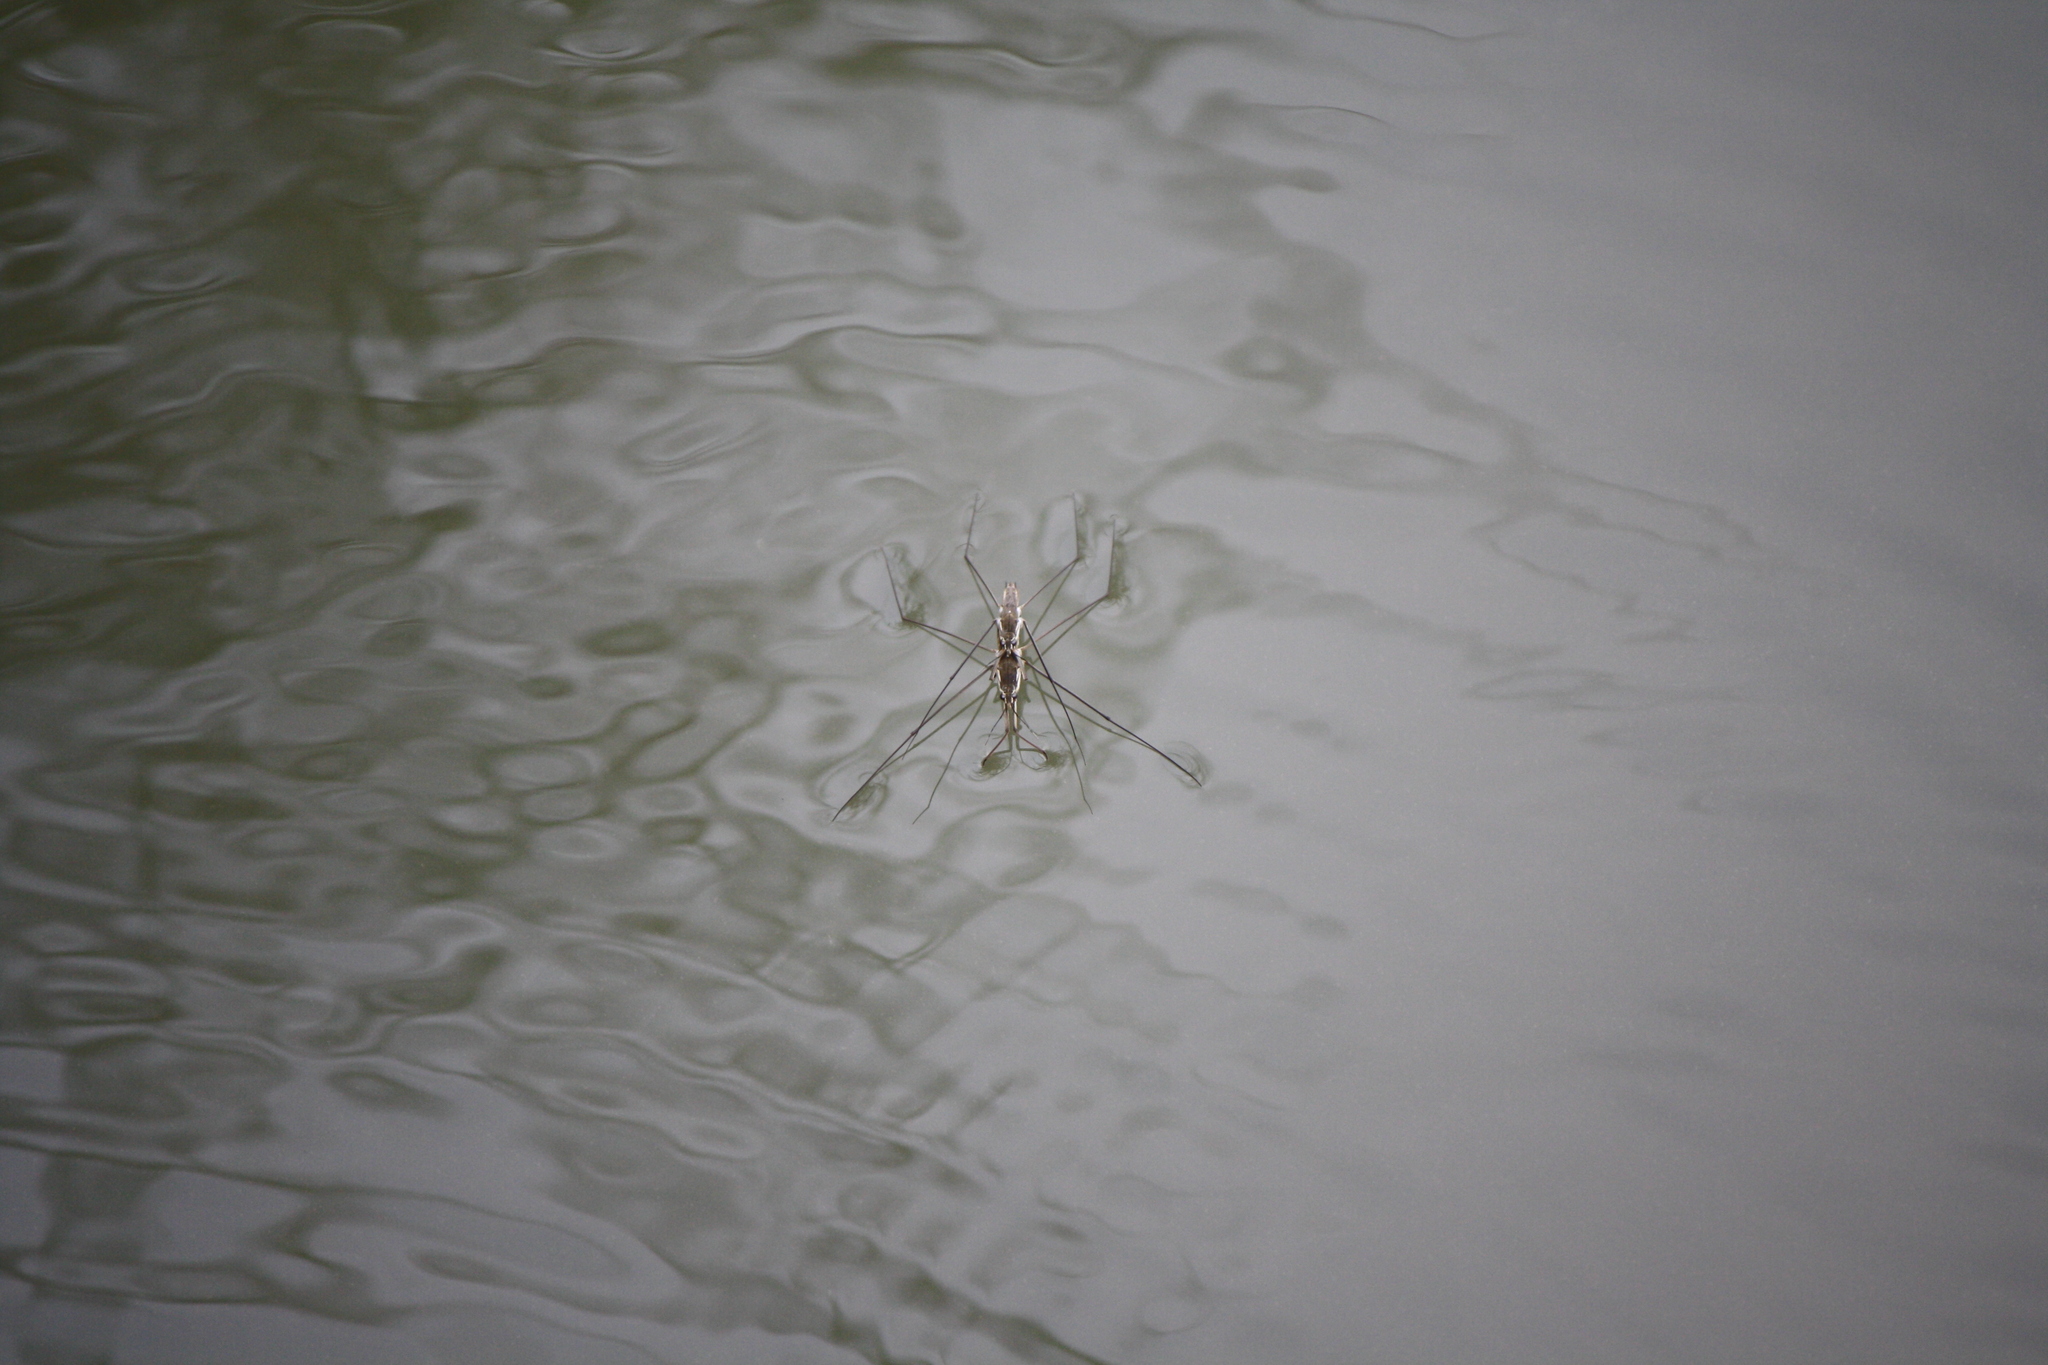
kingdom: Animalia
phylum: Arthropoda
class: Insecta
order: Hemiptera
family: Gerridae
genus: Aquarius
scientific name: Aquarius paludum
